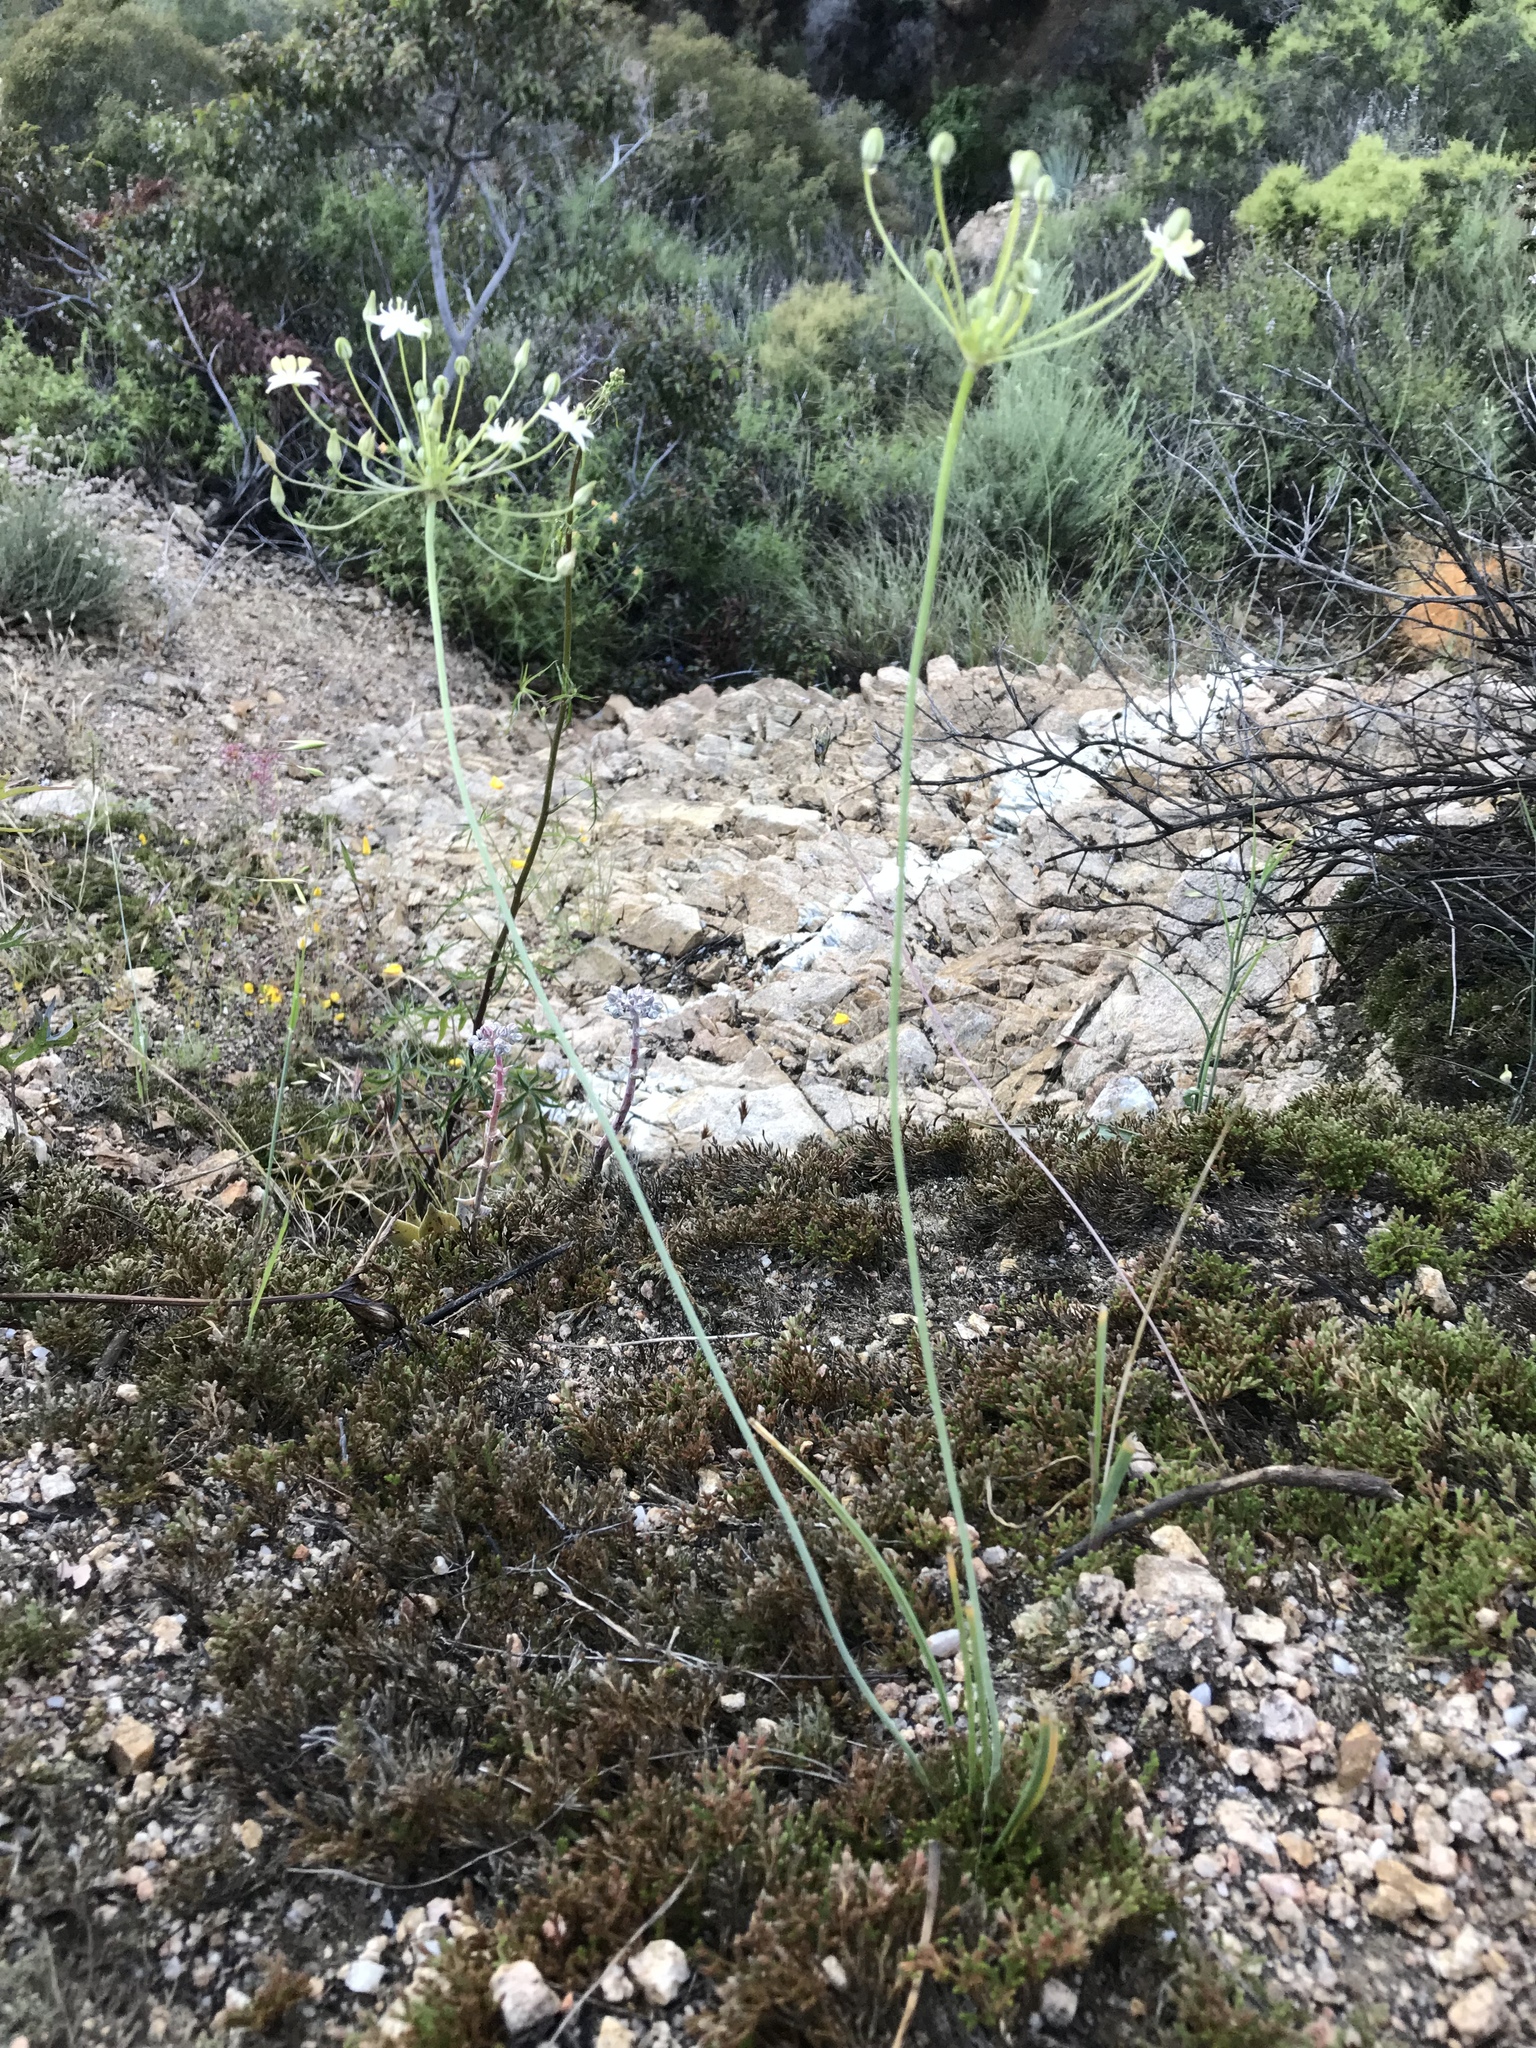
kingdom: Plantae
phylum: Tracheophyta
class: Liliopsida
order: Asparagales
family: Asparagaceae
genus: Muilla
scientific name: Muilla maritima
